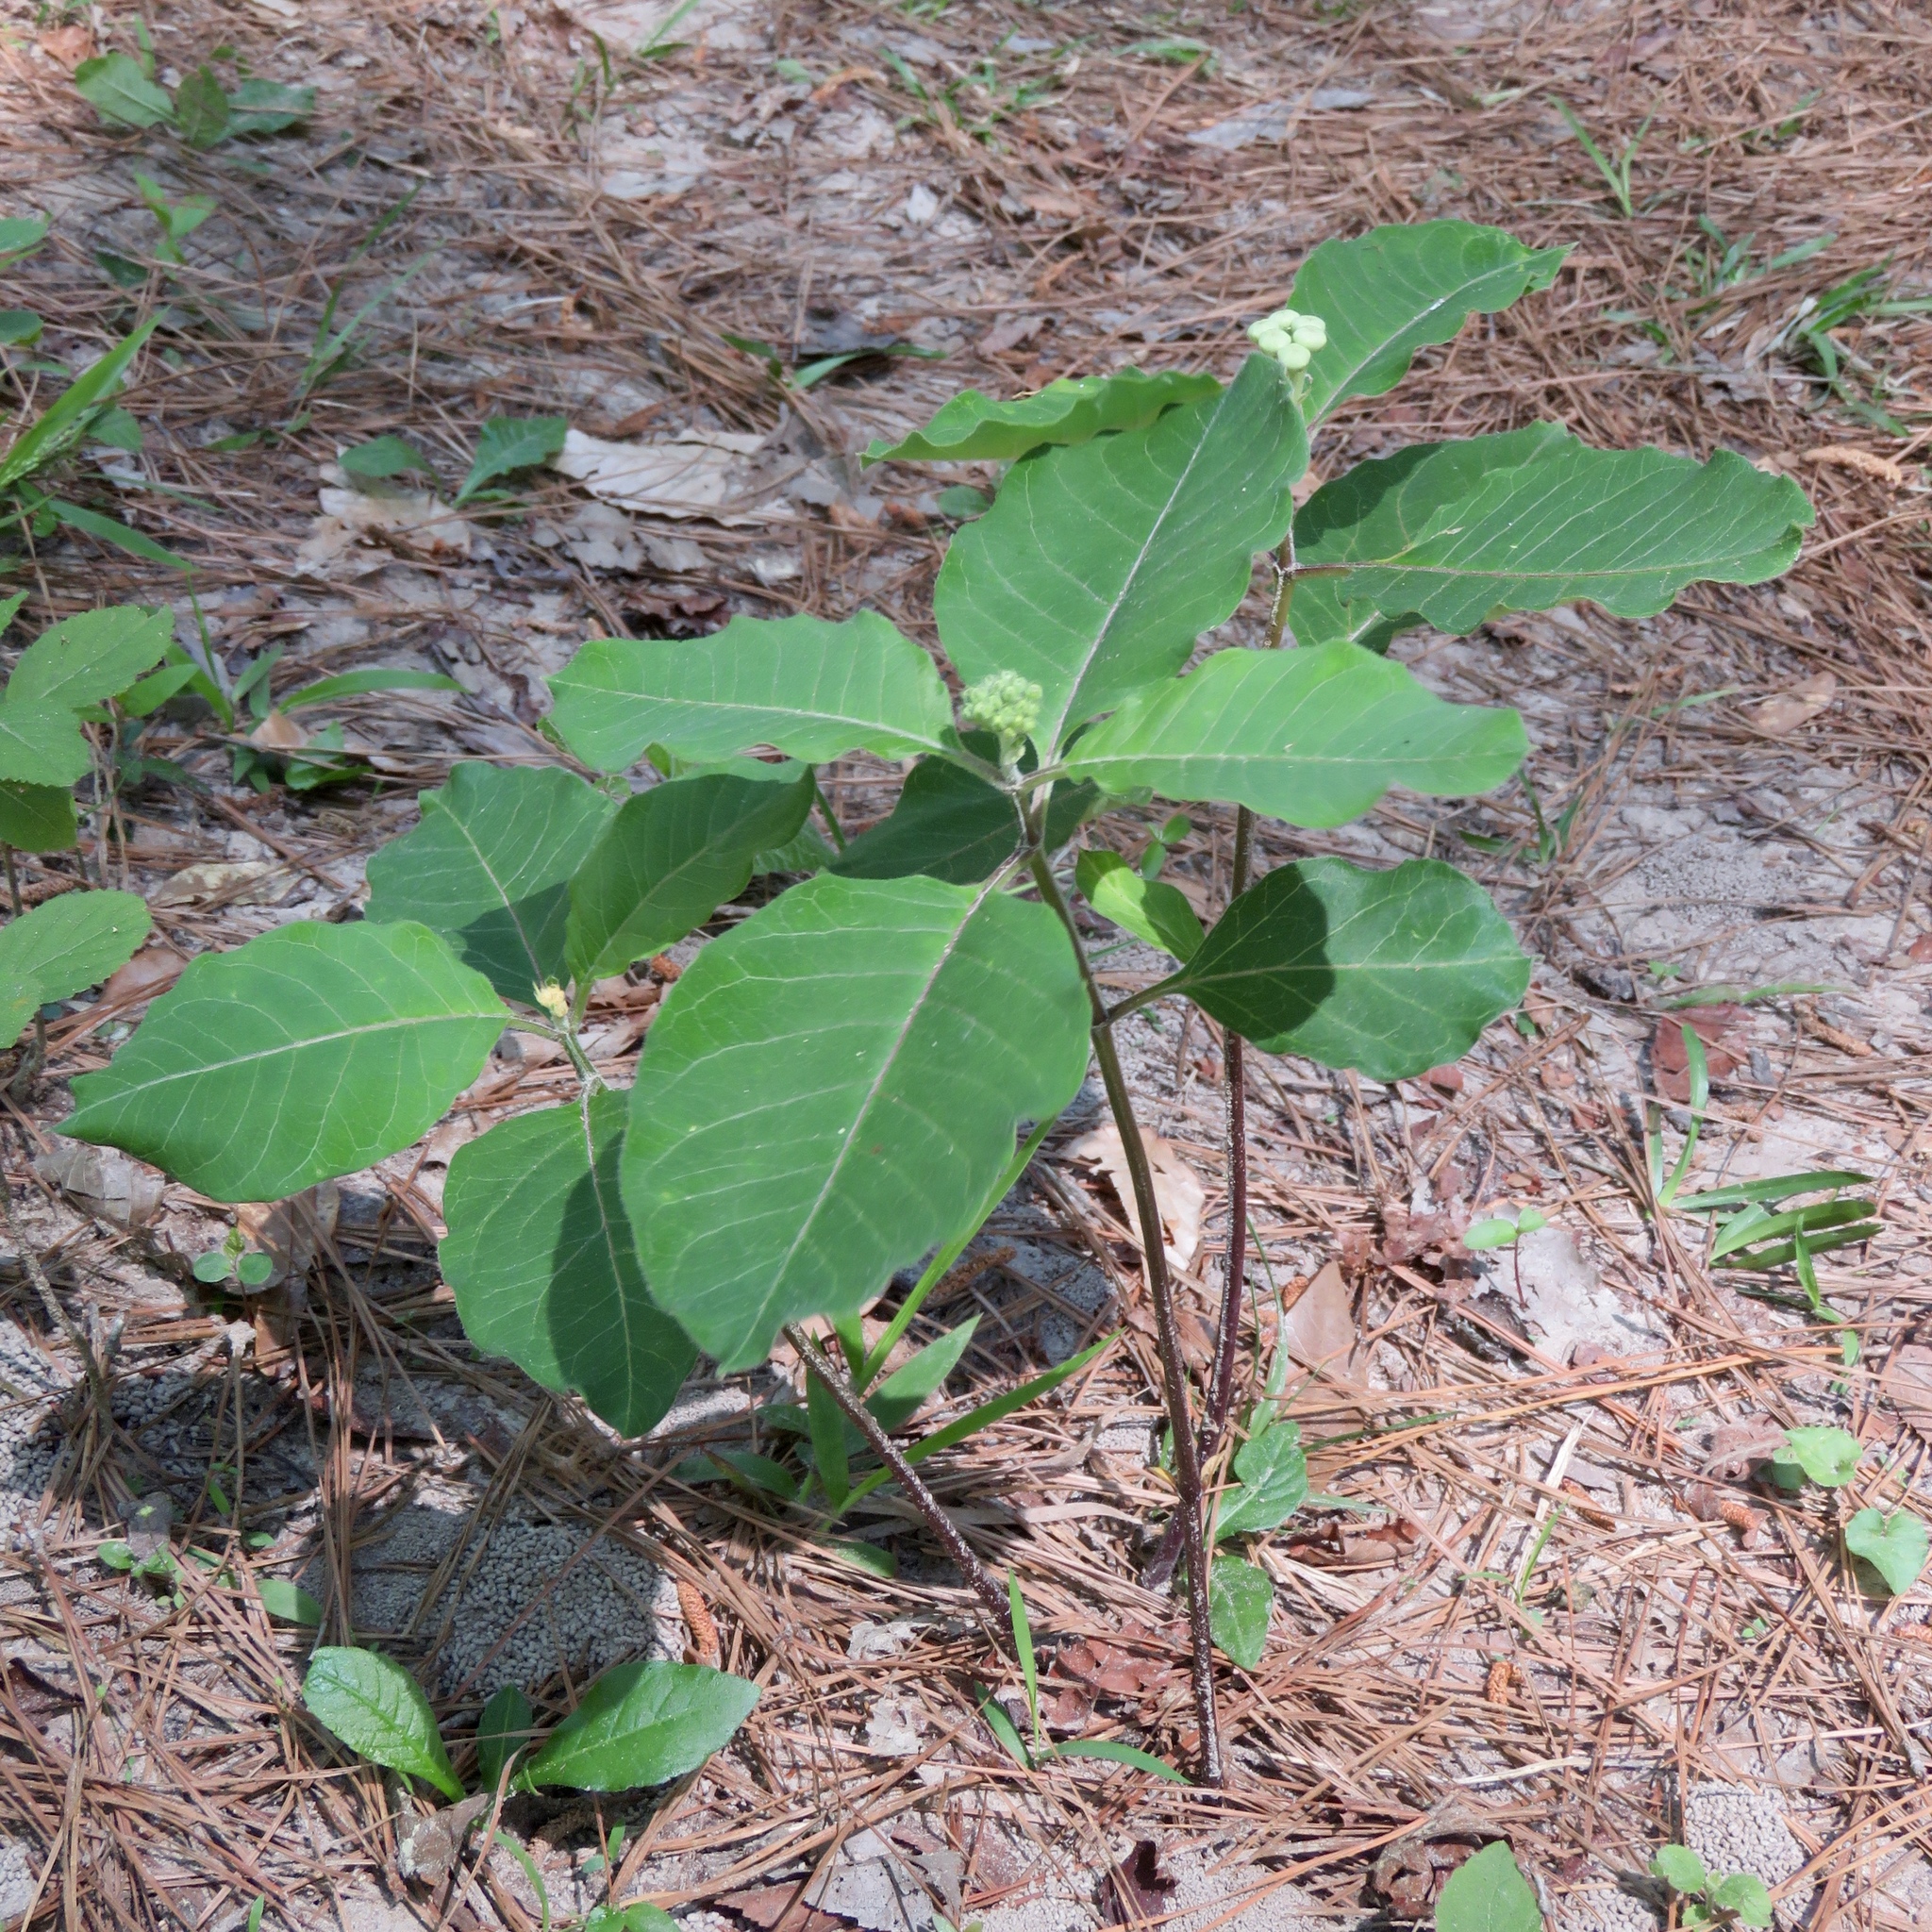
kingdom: Plantae
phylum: Tracheophyta
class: Magnoliopsida
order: Gentianales
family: Apocynaceae
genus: Asclepias
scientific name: Asclepias variegata
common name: Variegated milkweed
